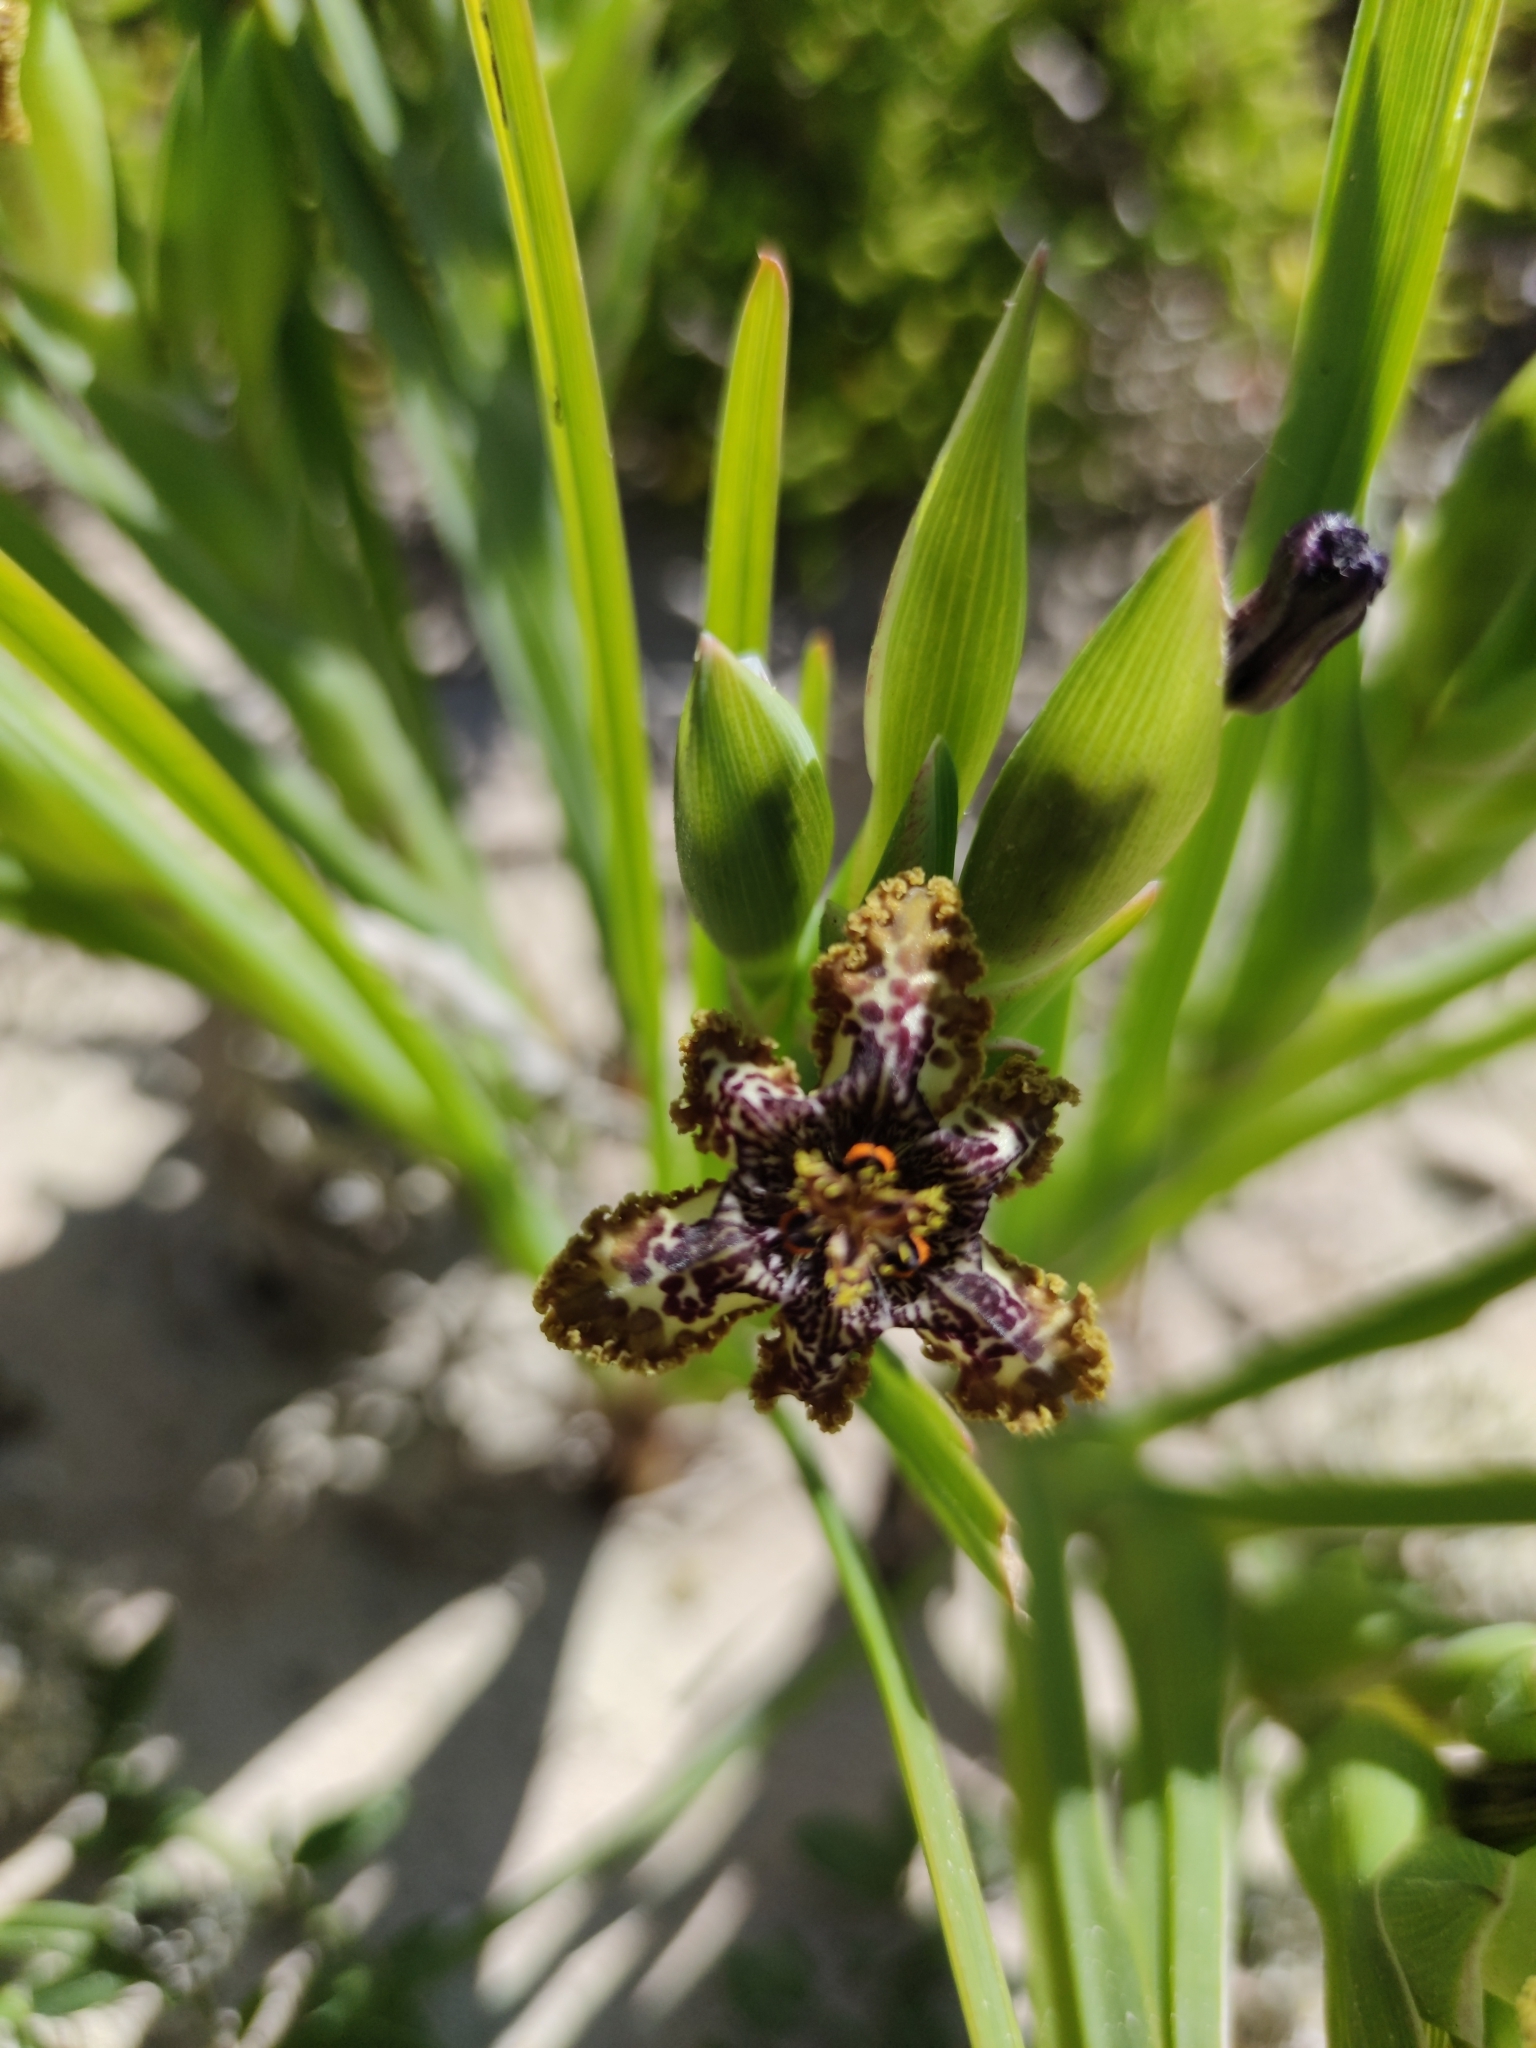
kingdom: Plantae
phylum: Tracheophyta
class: Liliopsida
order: Asparagales
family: Iridaceae
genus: Ferraria
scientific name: Ferraria crispa
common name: Black-flag
